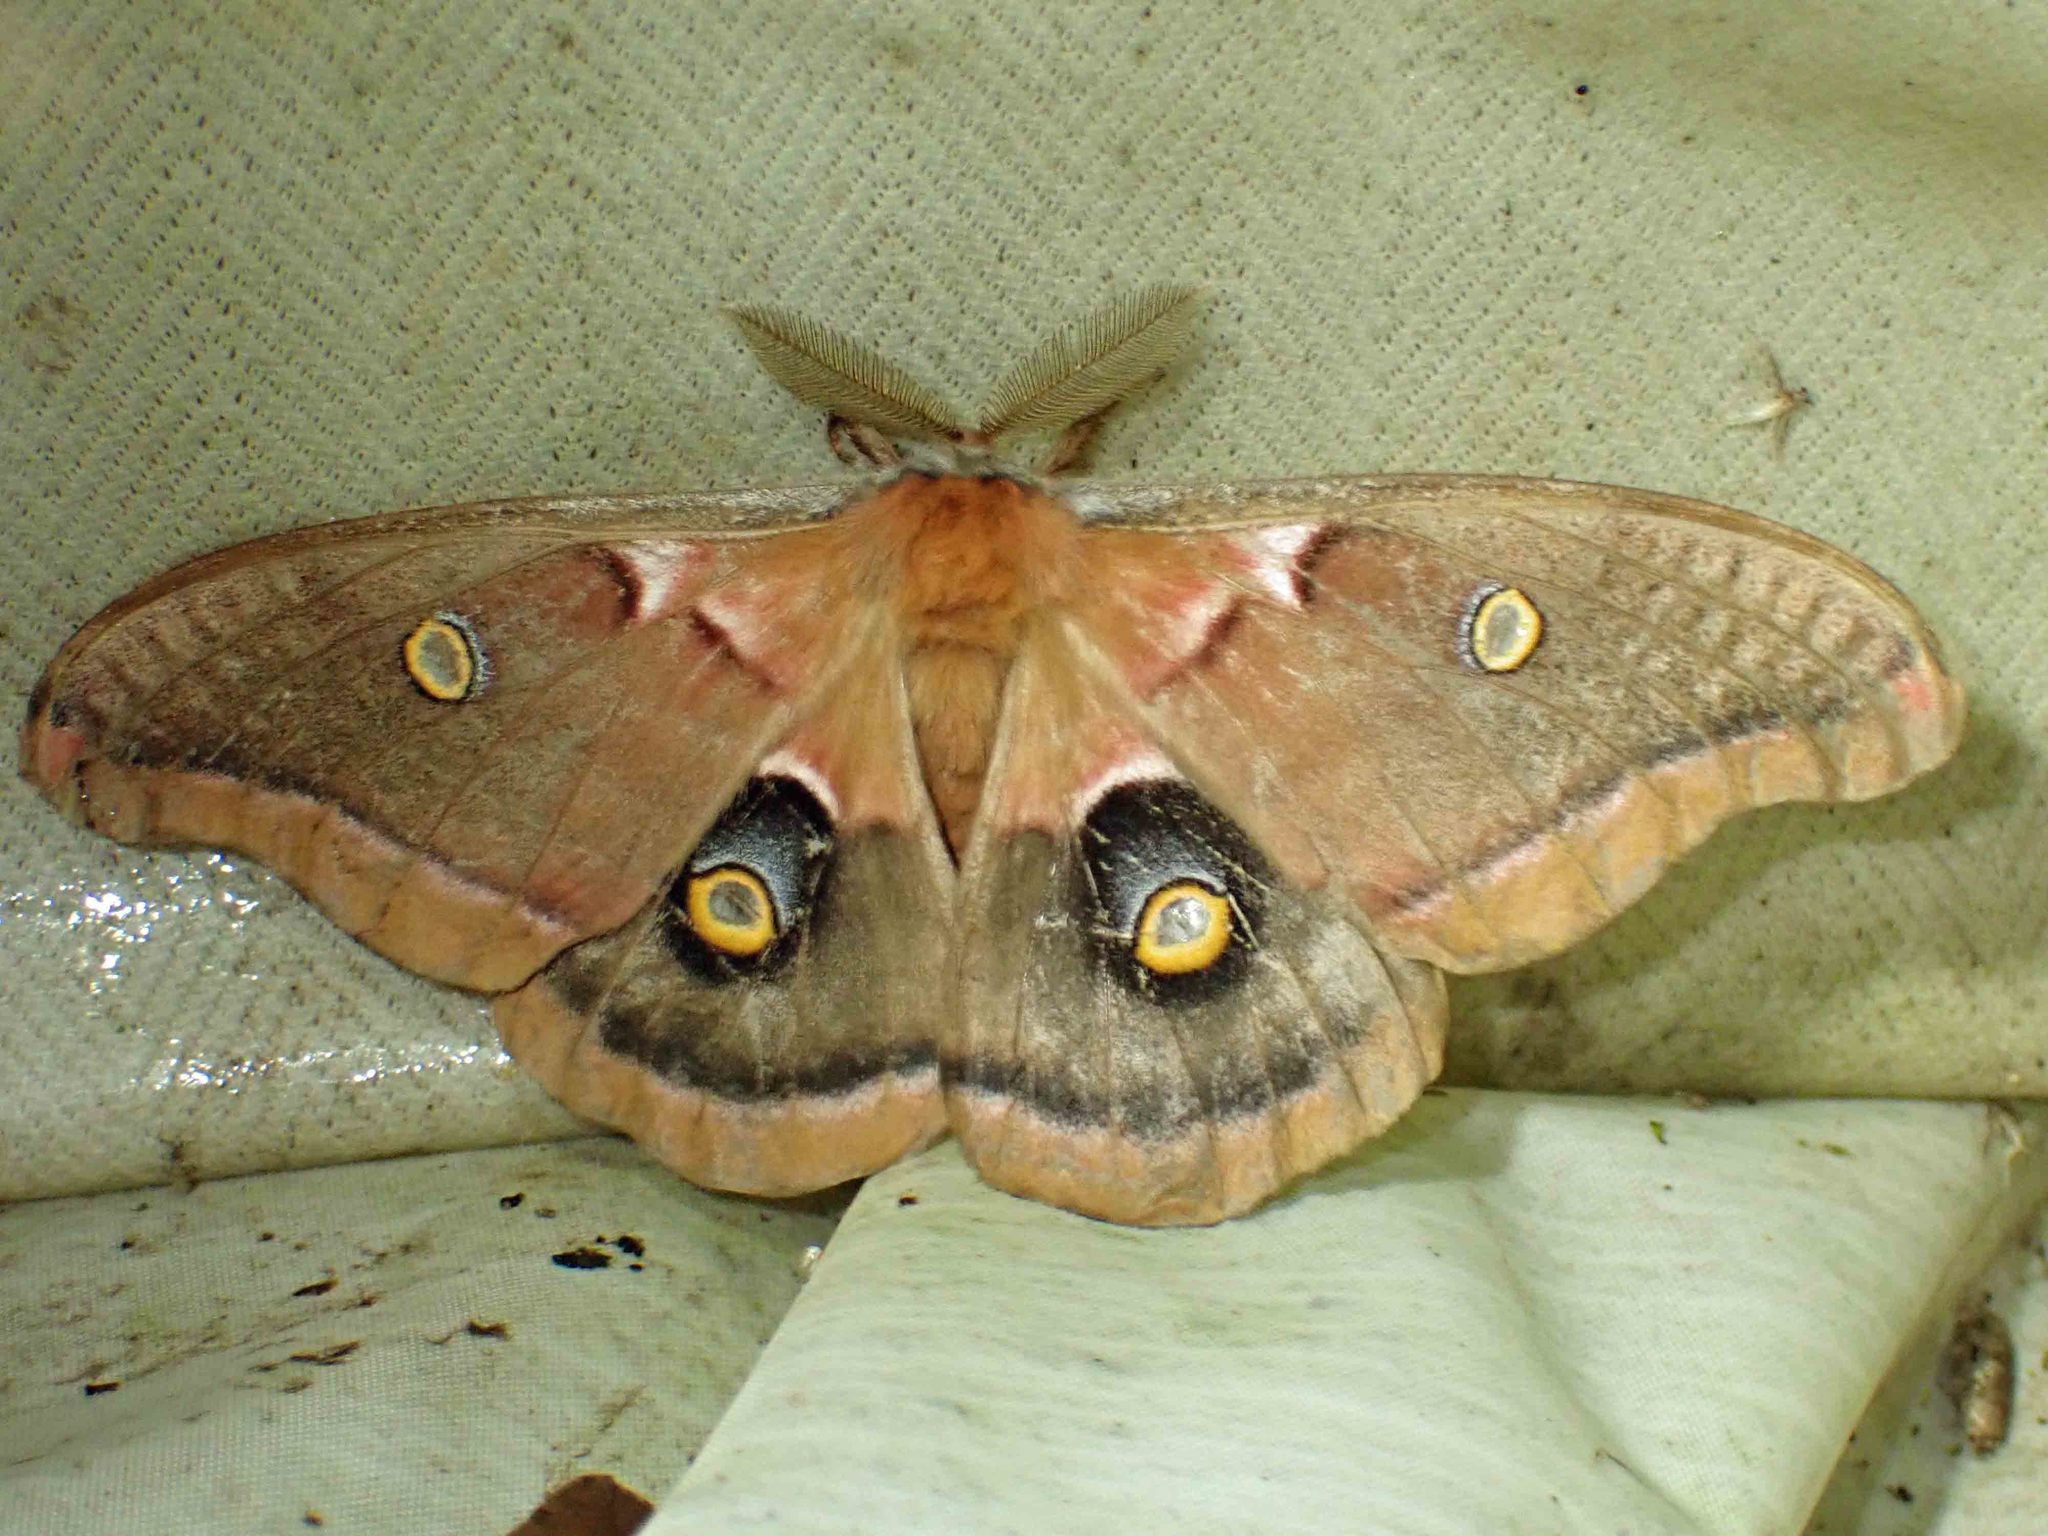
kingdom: Animalia
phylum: Arthropoda
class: Insecta
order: Lepidoptera
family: Saturniidae
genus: Antheraea
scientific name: Antheraea polyphemus
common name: Polyphemus moth
